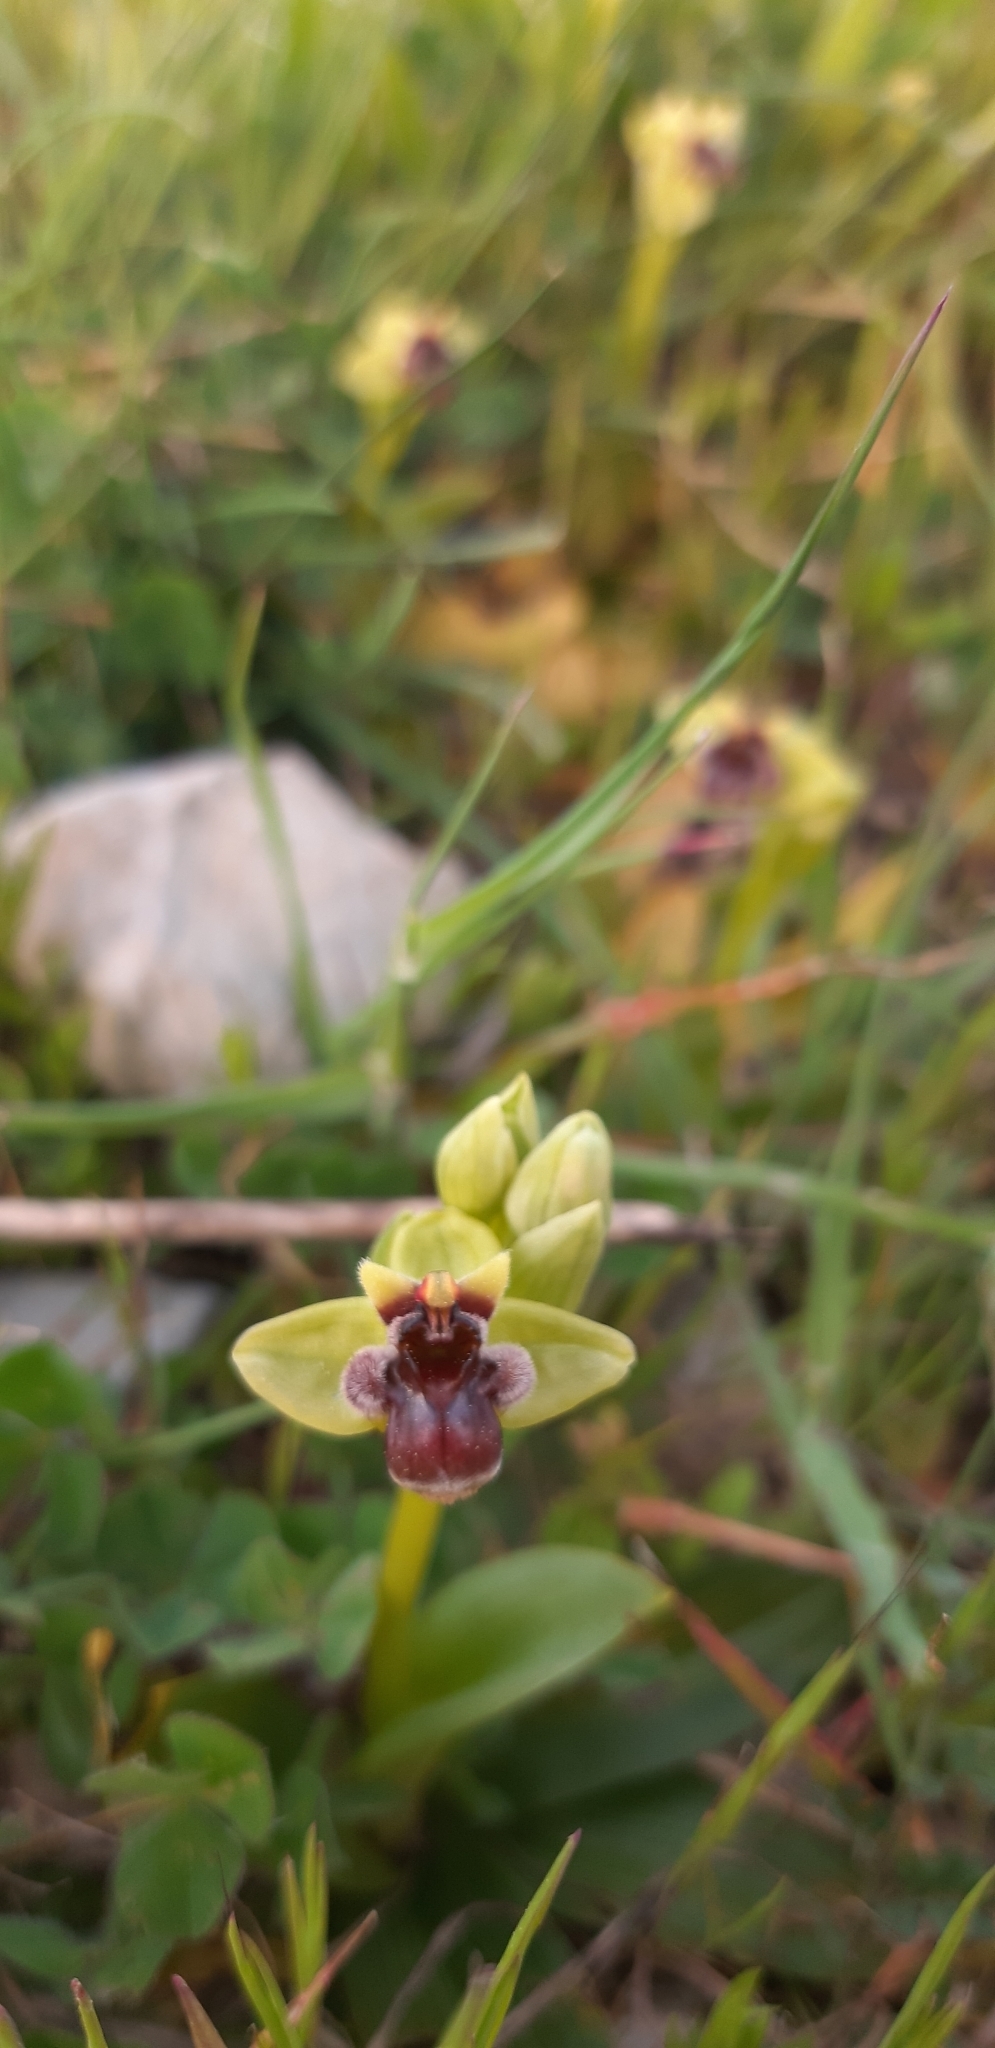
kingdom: Plantae
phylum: Tracheophyta
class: Liliopsida
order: Asparagales
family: Orchidaceae
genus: Ophrys
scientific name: Ophrys bombyliflora
